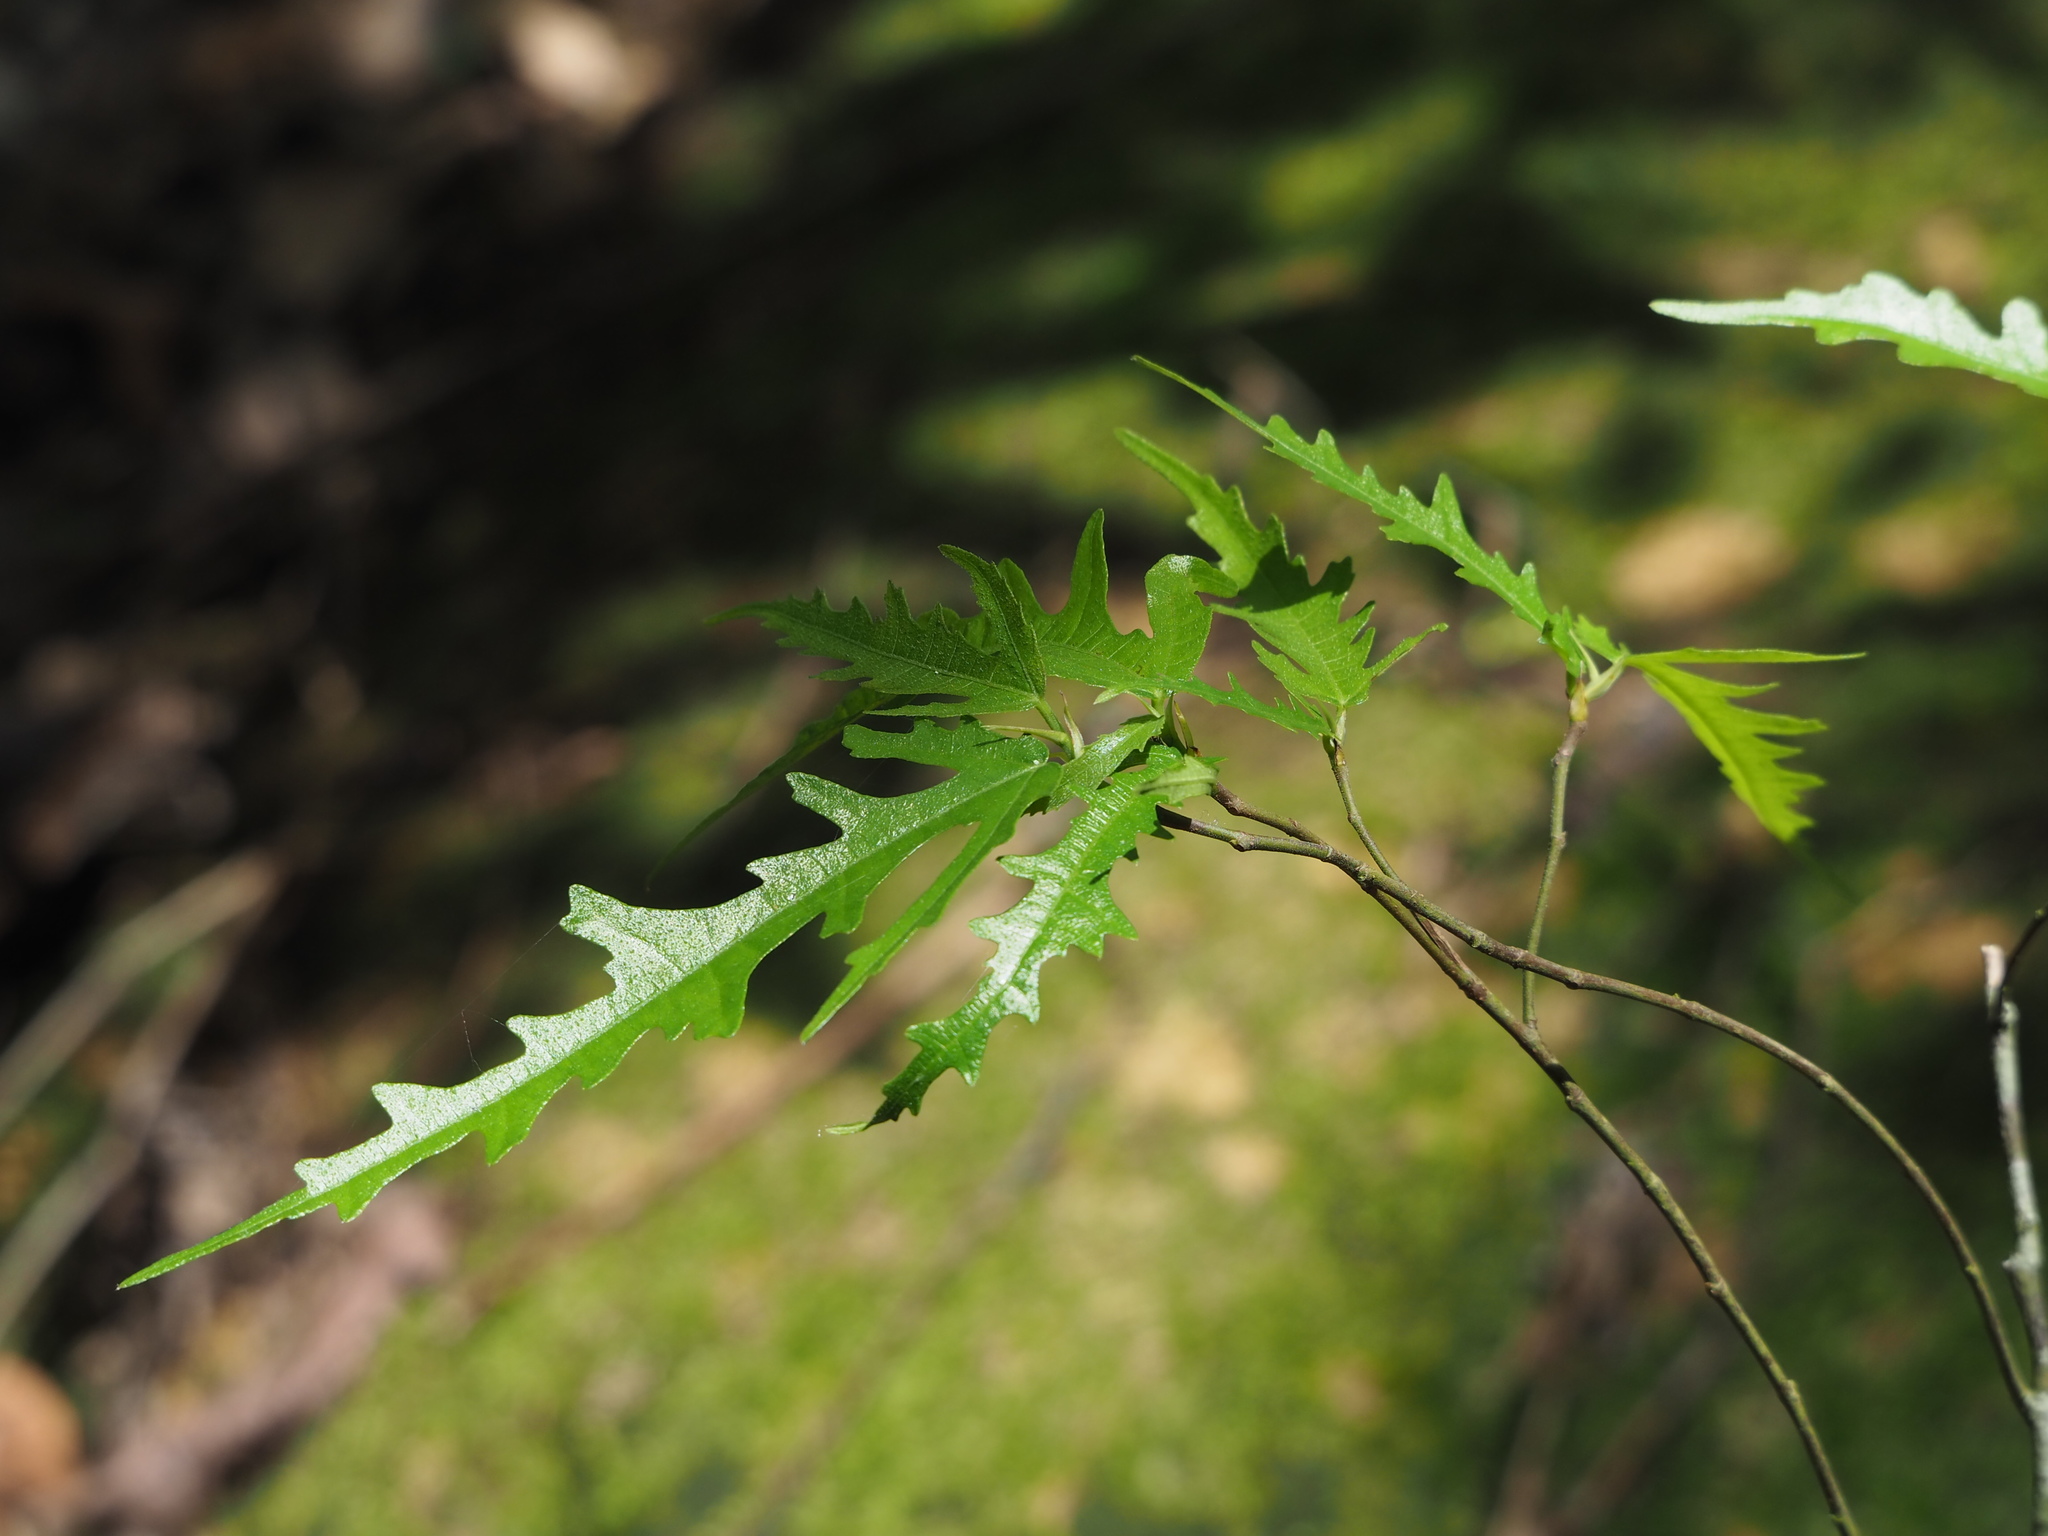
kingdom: Plantae
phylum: Tracheophyta
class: Magnoliopsida
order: Rosales
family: Moraceae
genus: Ficus
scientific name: Ficus ampelos
